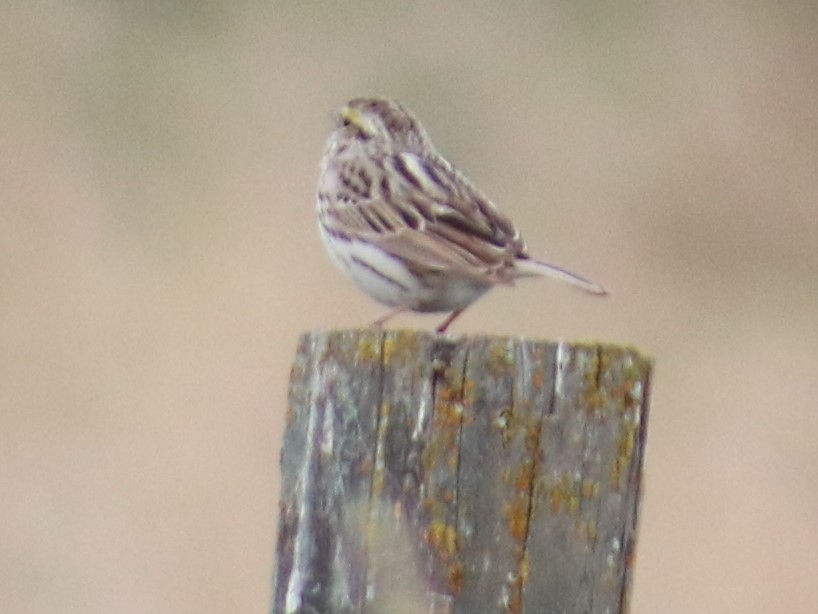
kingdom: Animalia
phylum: Chordata
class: Aves
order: Passeriformes
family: Passerellidae
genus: Passerculus
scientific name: Passerculus sandwichensis
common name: Savannah sparrow
